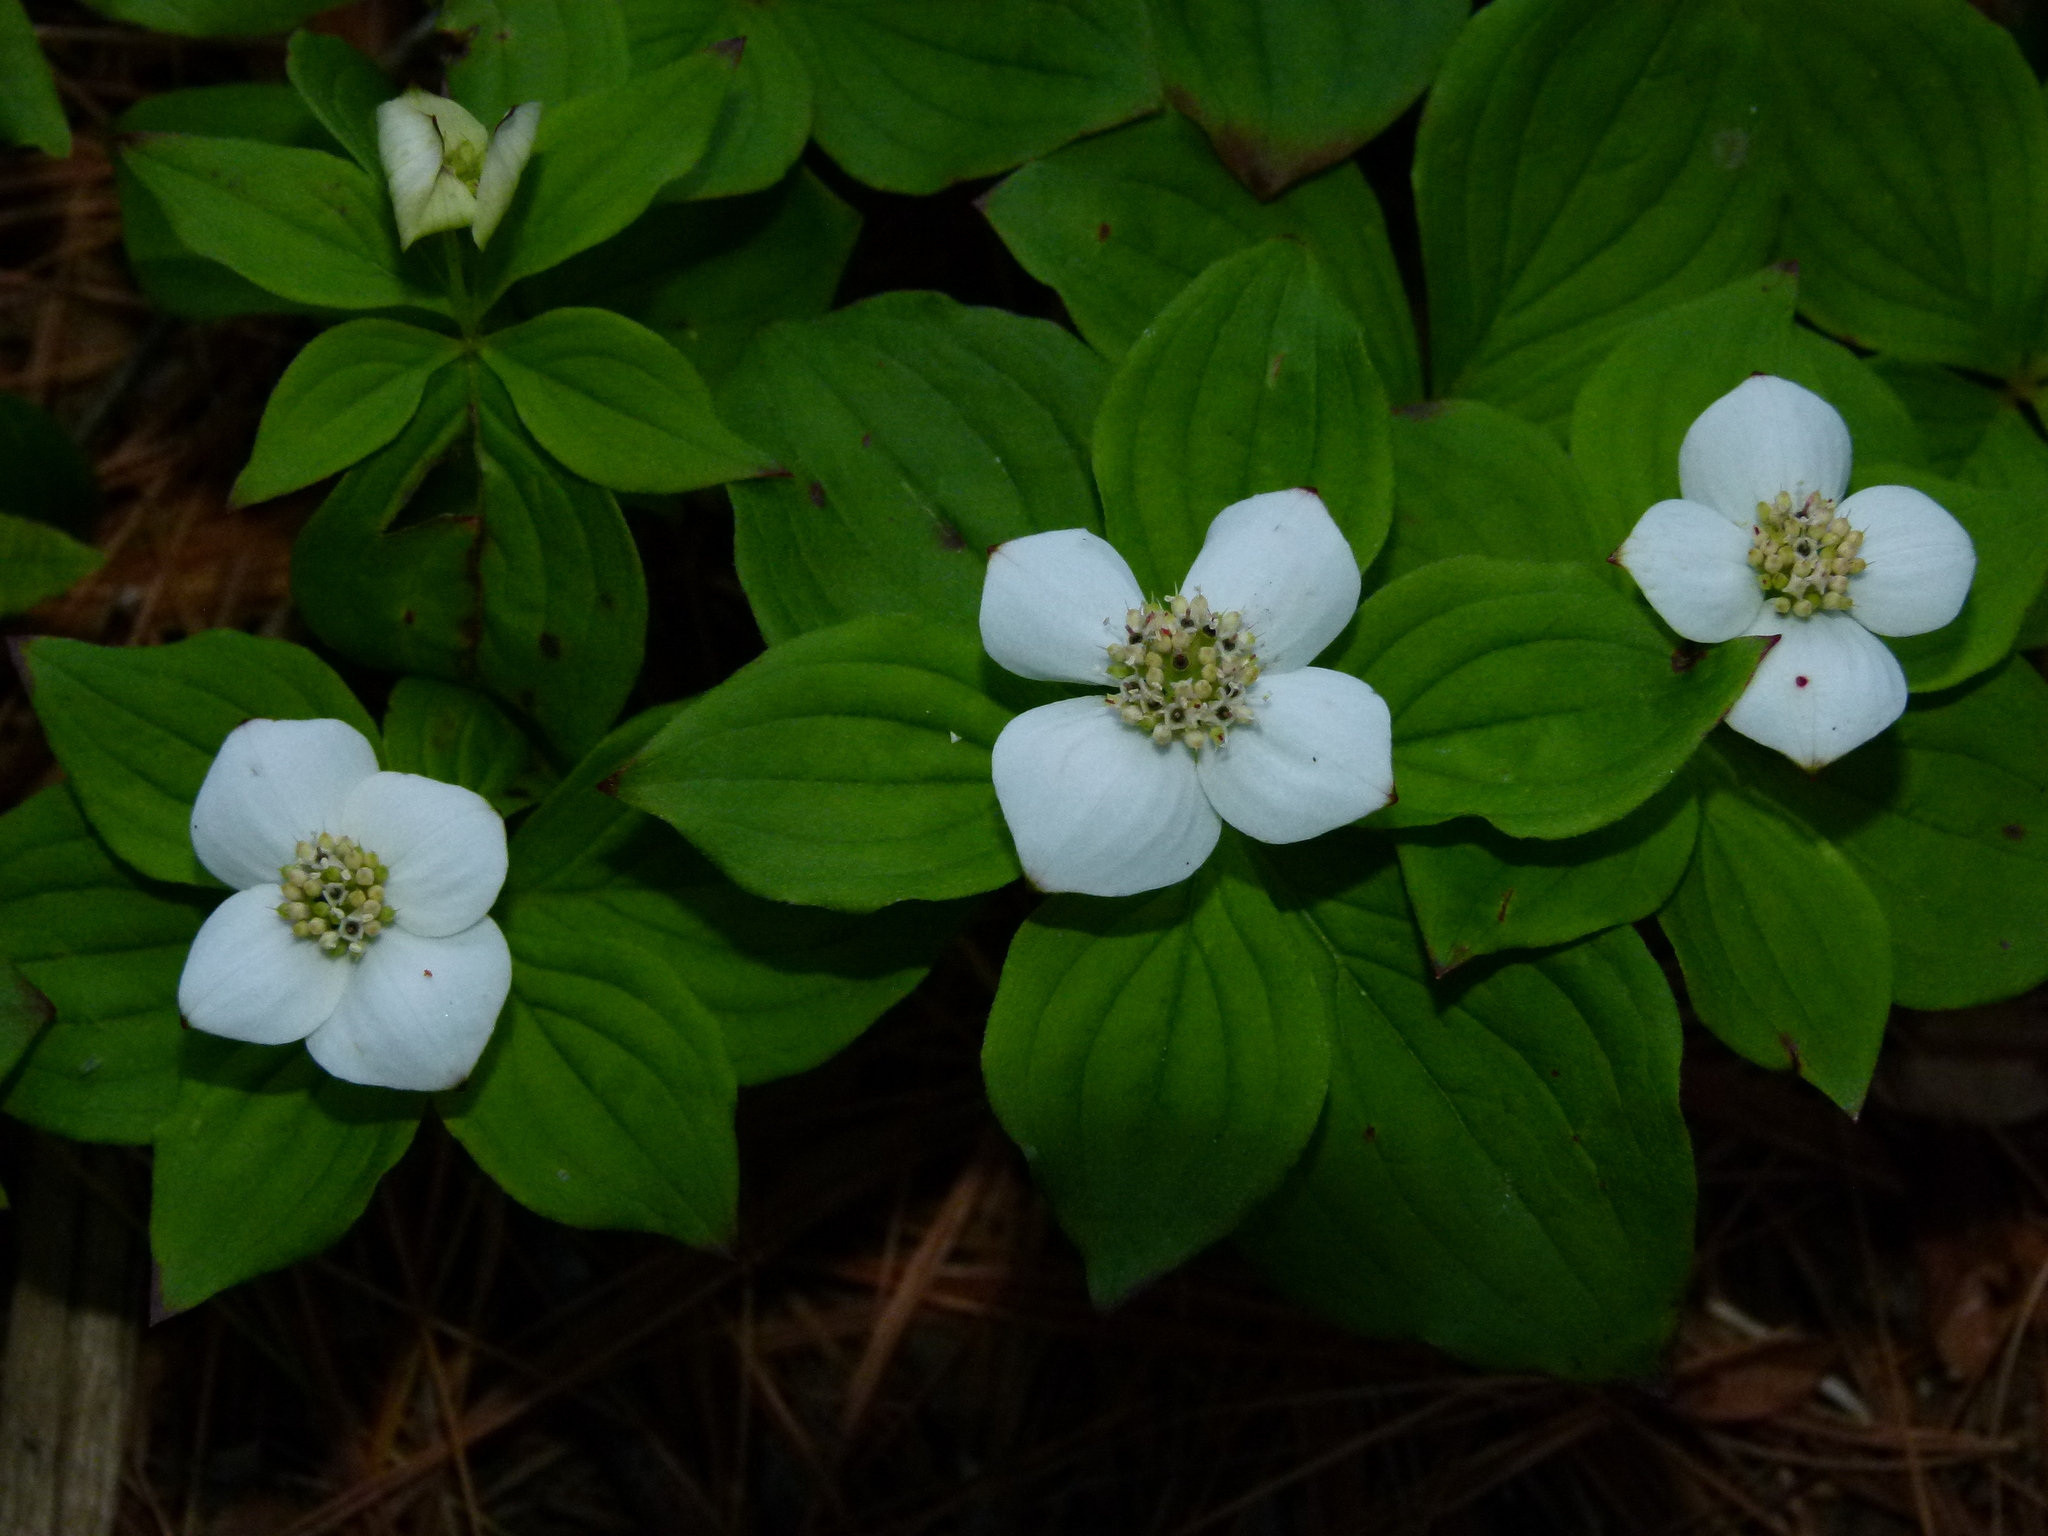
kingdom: Plantae
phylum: Tracheophyta
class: Magnoliopsida
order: Cornales
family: Cornaceae
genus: Cornus
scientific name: Cornus canadensis
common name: Creeping dogwood
